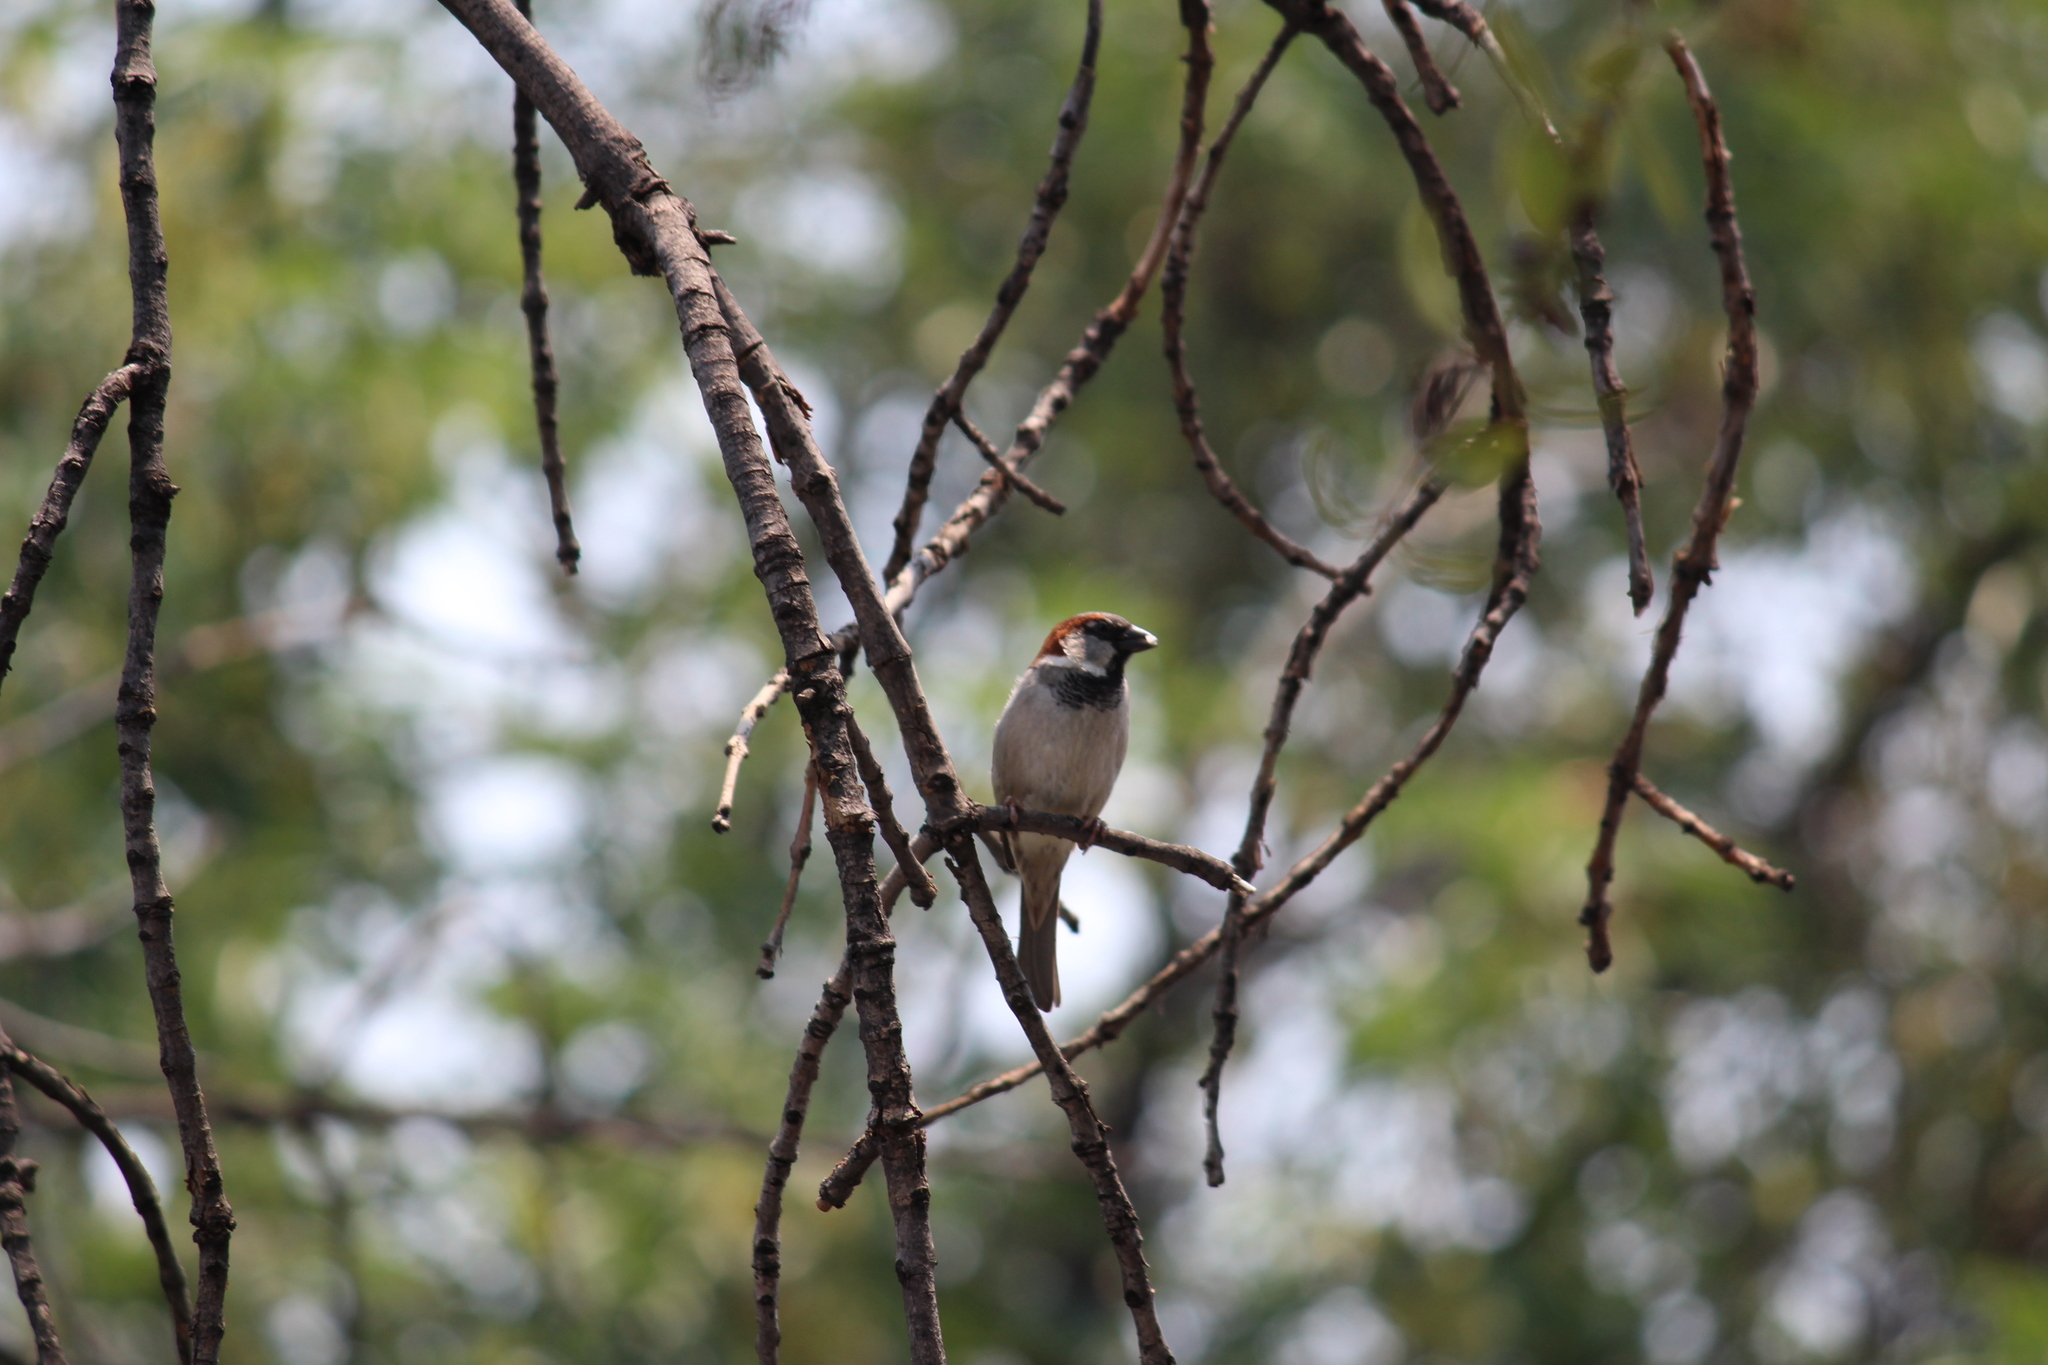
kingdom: Animalia
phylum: Chordata
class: Aves
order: Passeriformes
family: Passeridae
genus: Passer
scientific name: Passer domesticus
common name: House sparrow
